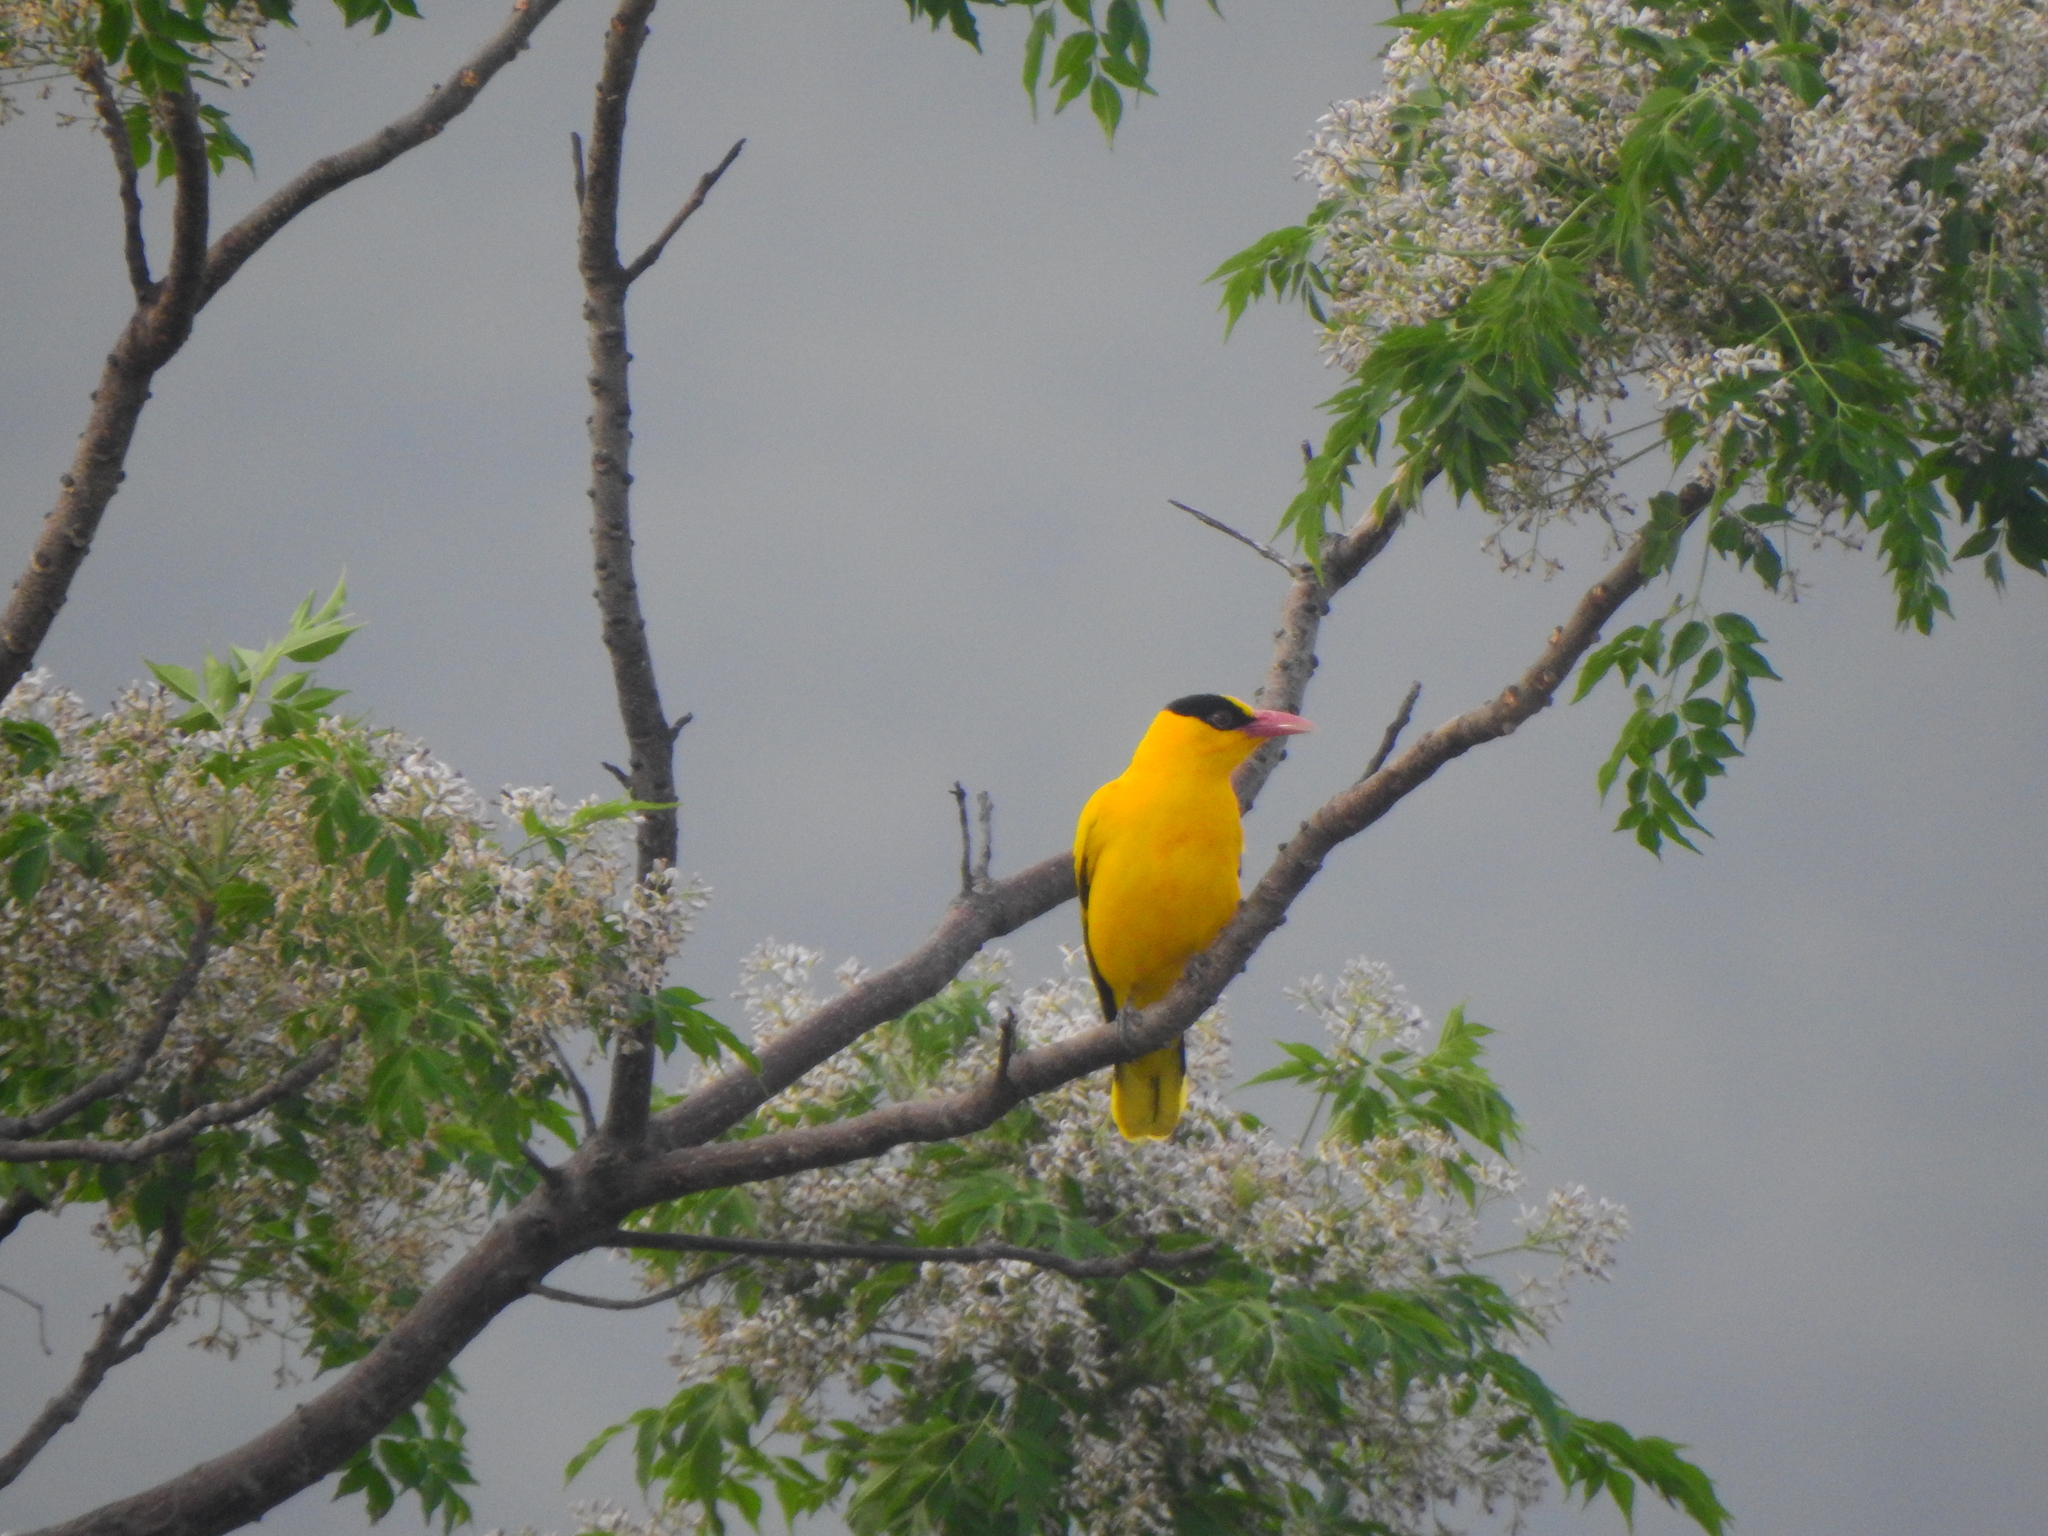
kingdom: Animalia
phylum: Chordata
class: Aves
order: Passeriformes
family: Oriolidae
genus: Oriolus
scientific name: Oriolus chinensis
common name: Black-naped oriole
